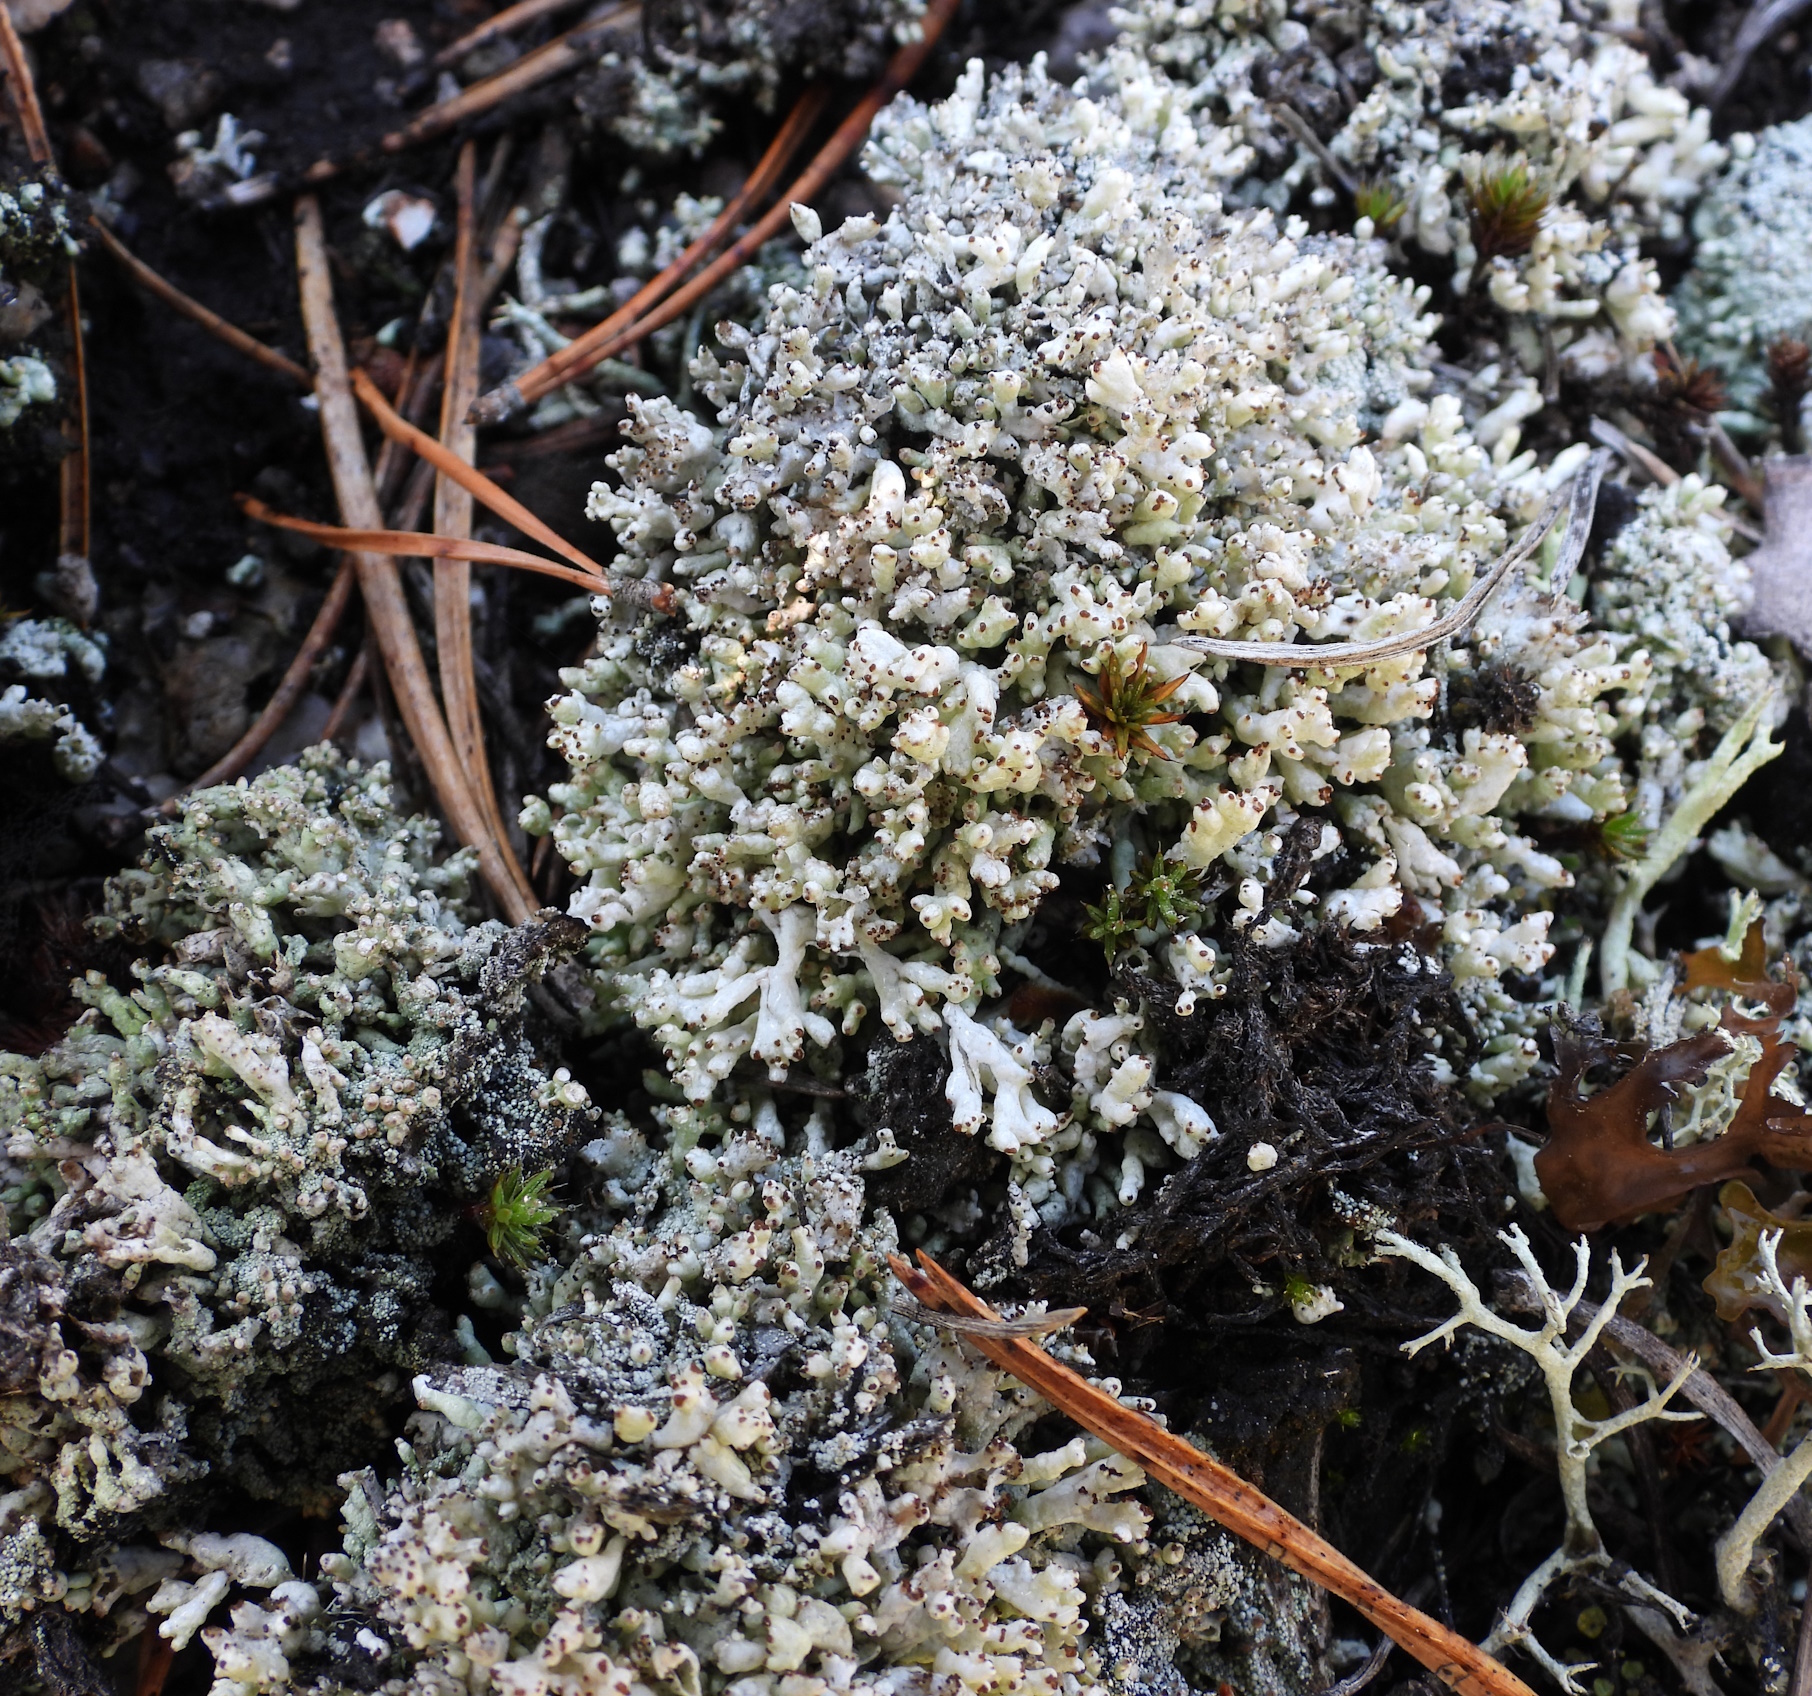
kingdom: Fungi
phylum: Ascomycota
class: Lecanoromycetes
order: Lecanorales
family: Cladoniaceae
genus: Pycnothelia
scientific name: Pycnothelia papillaria
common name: Nipple lichen
